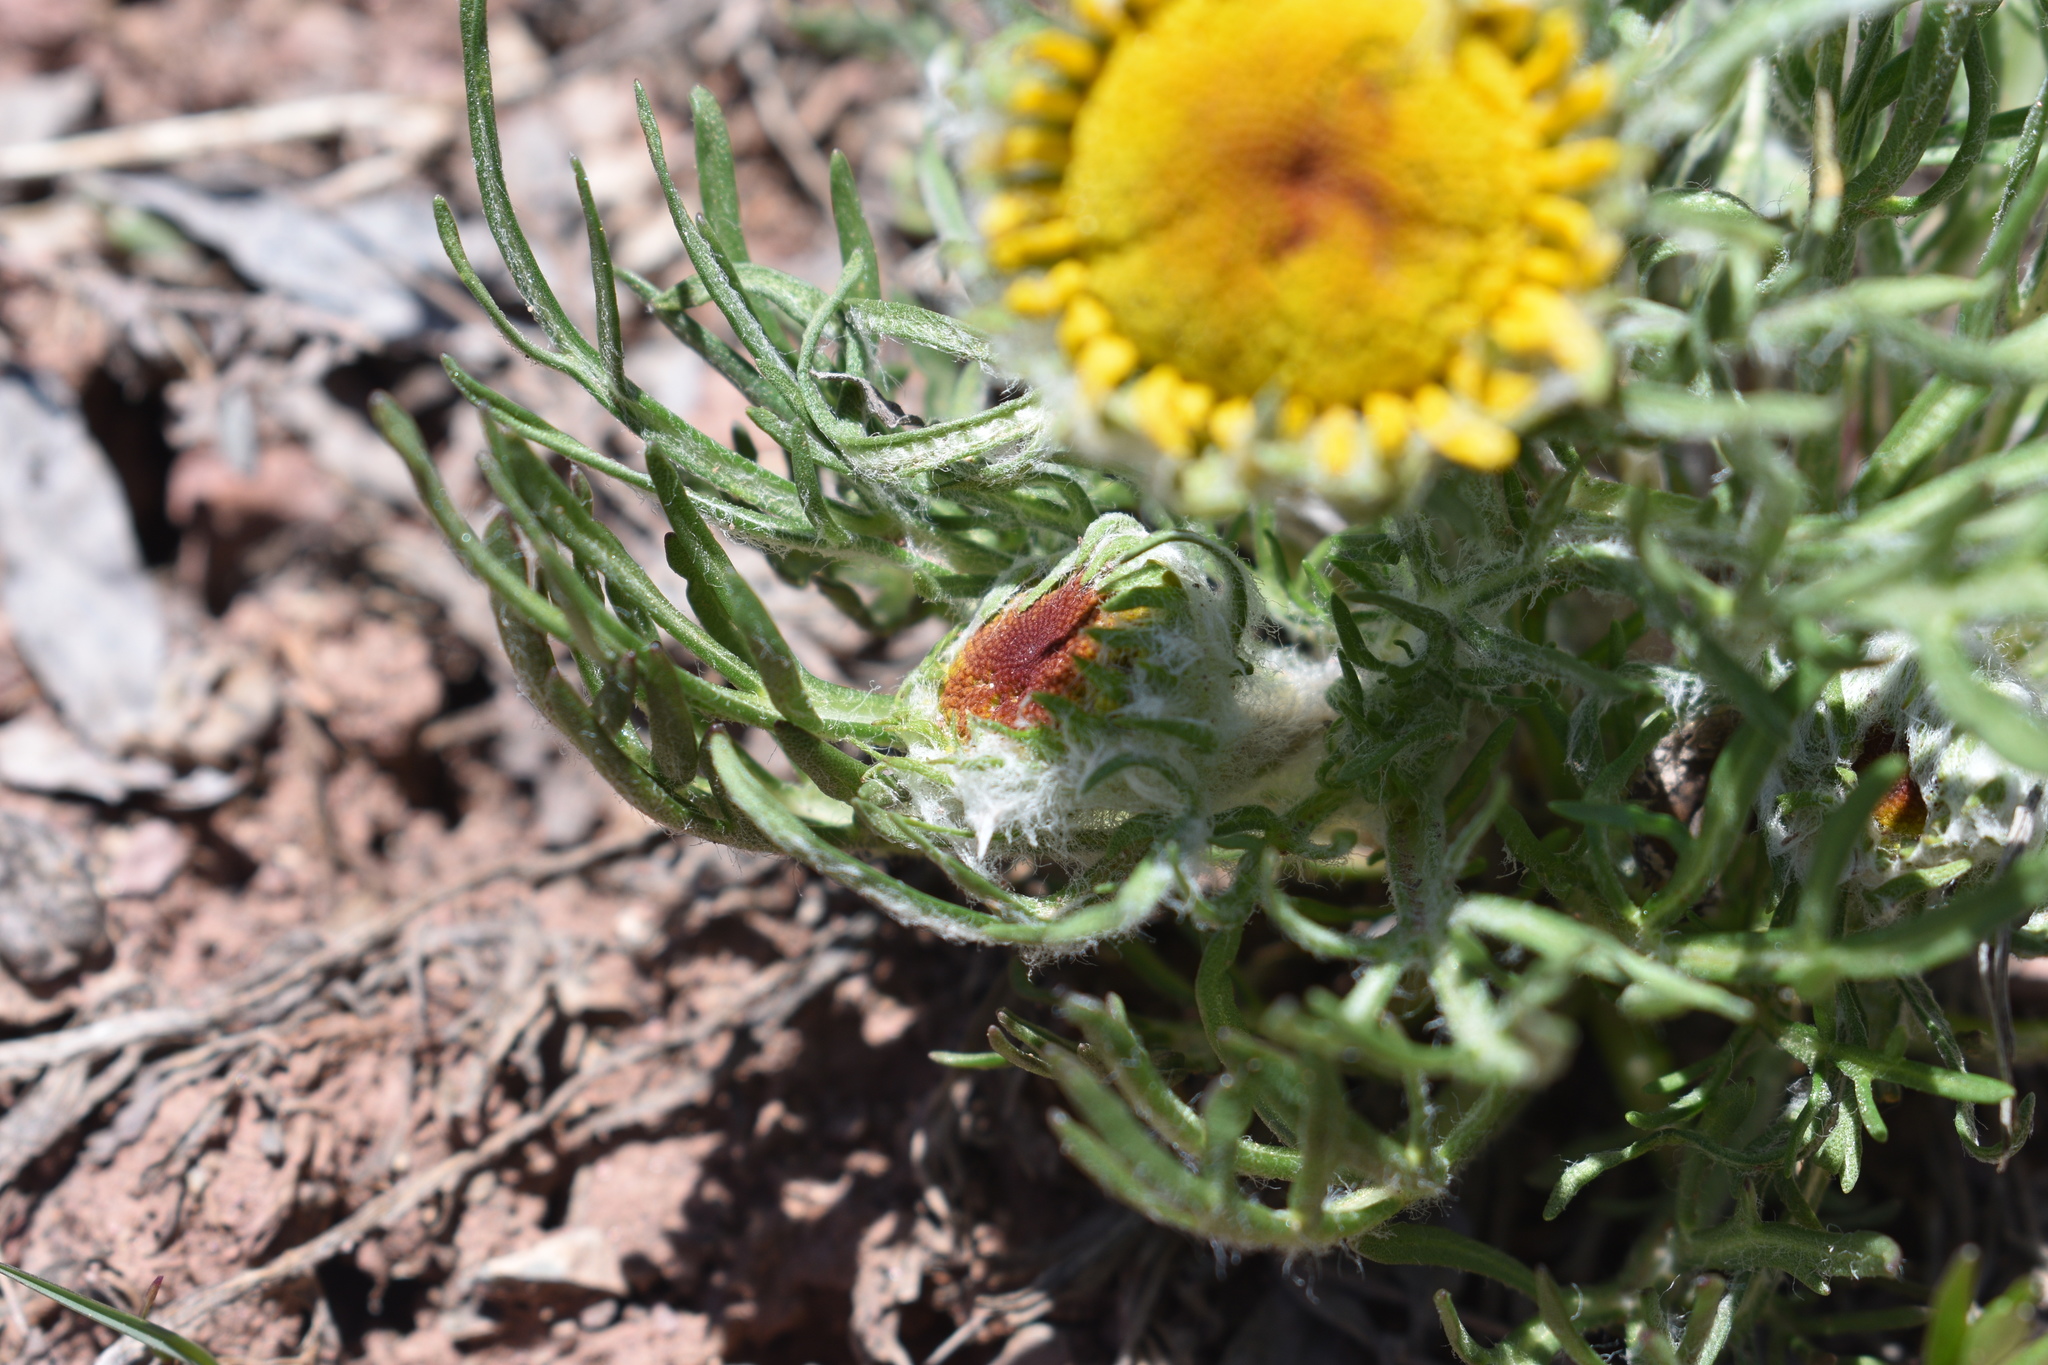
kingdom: Plantae
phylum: Tracheophyta
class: Magnoliopsida
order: Asterales
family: Asteraceae
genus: Hymenoxys
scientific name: Hymenoxys grandiflora
